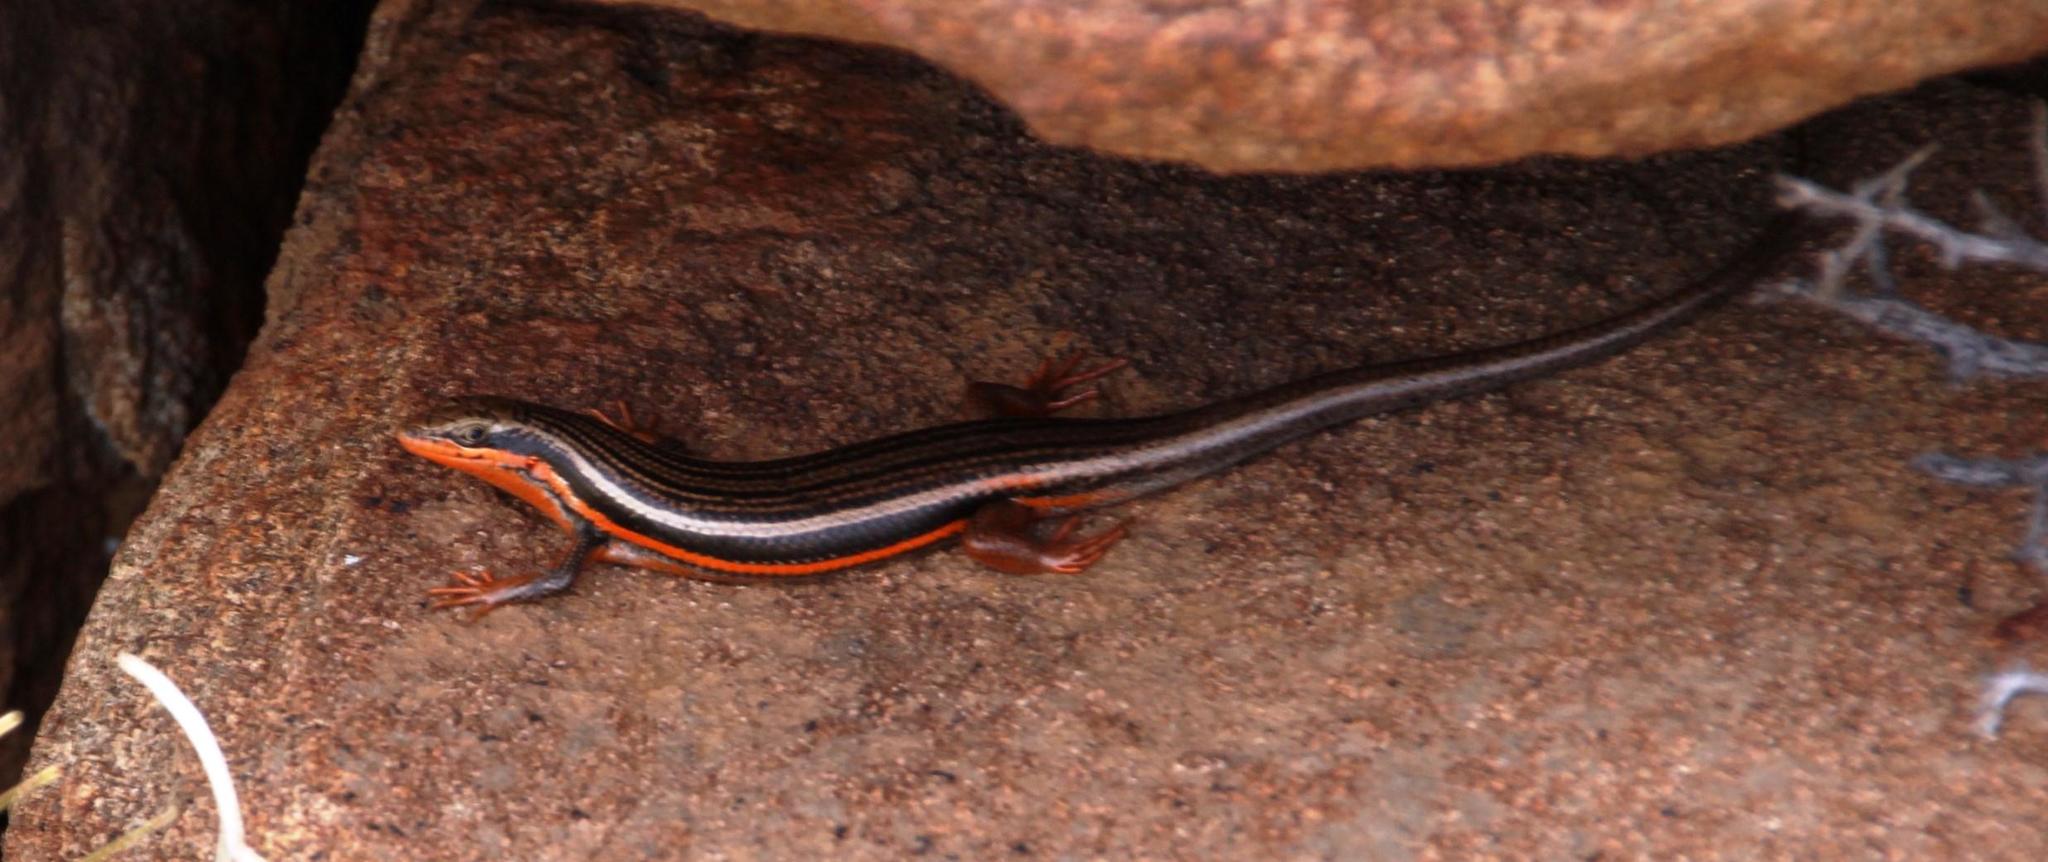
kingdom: Animalia
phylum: Chordata
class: Squamata
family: Scincidae
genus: Trachylepis
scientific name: Trachylepis homalocephala
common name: Red-sided skink
